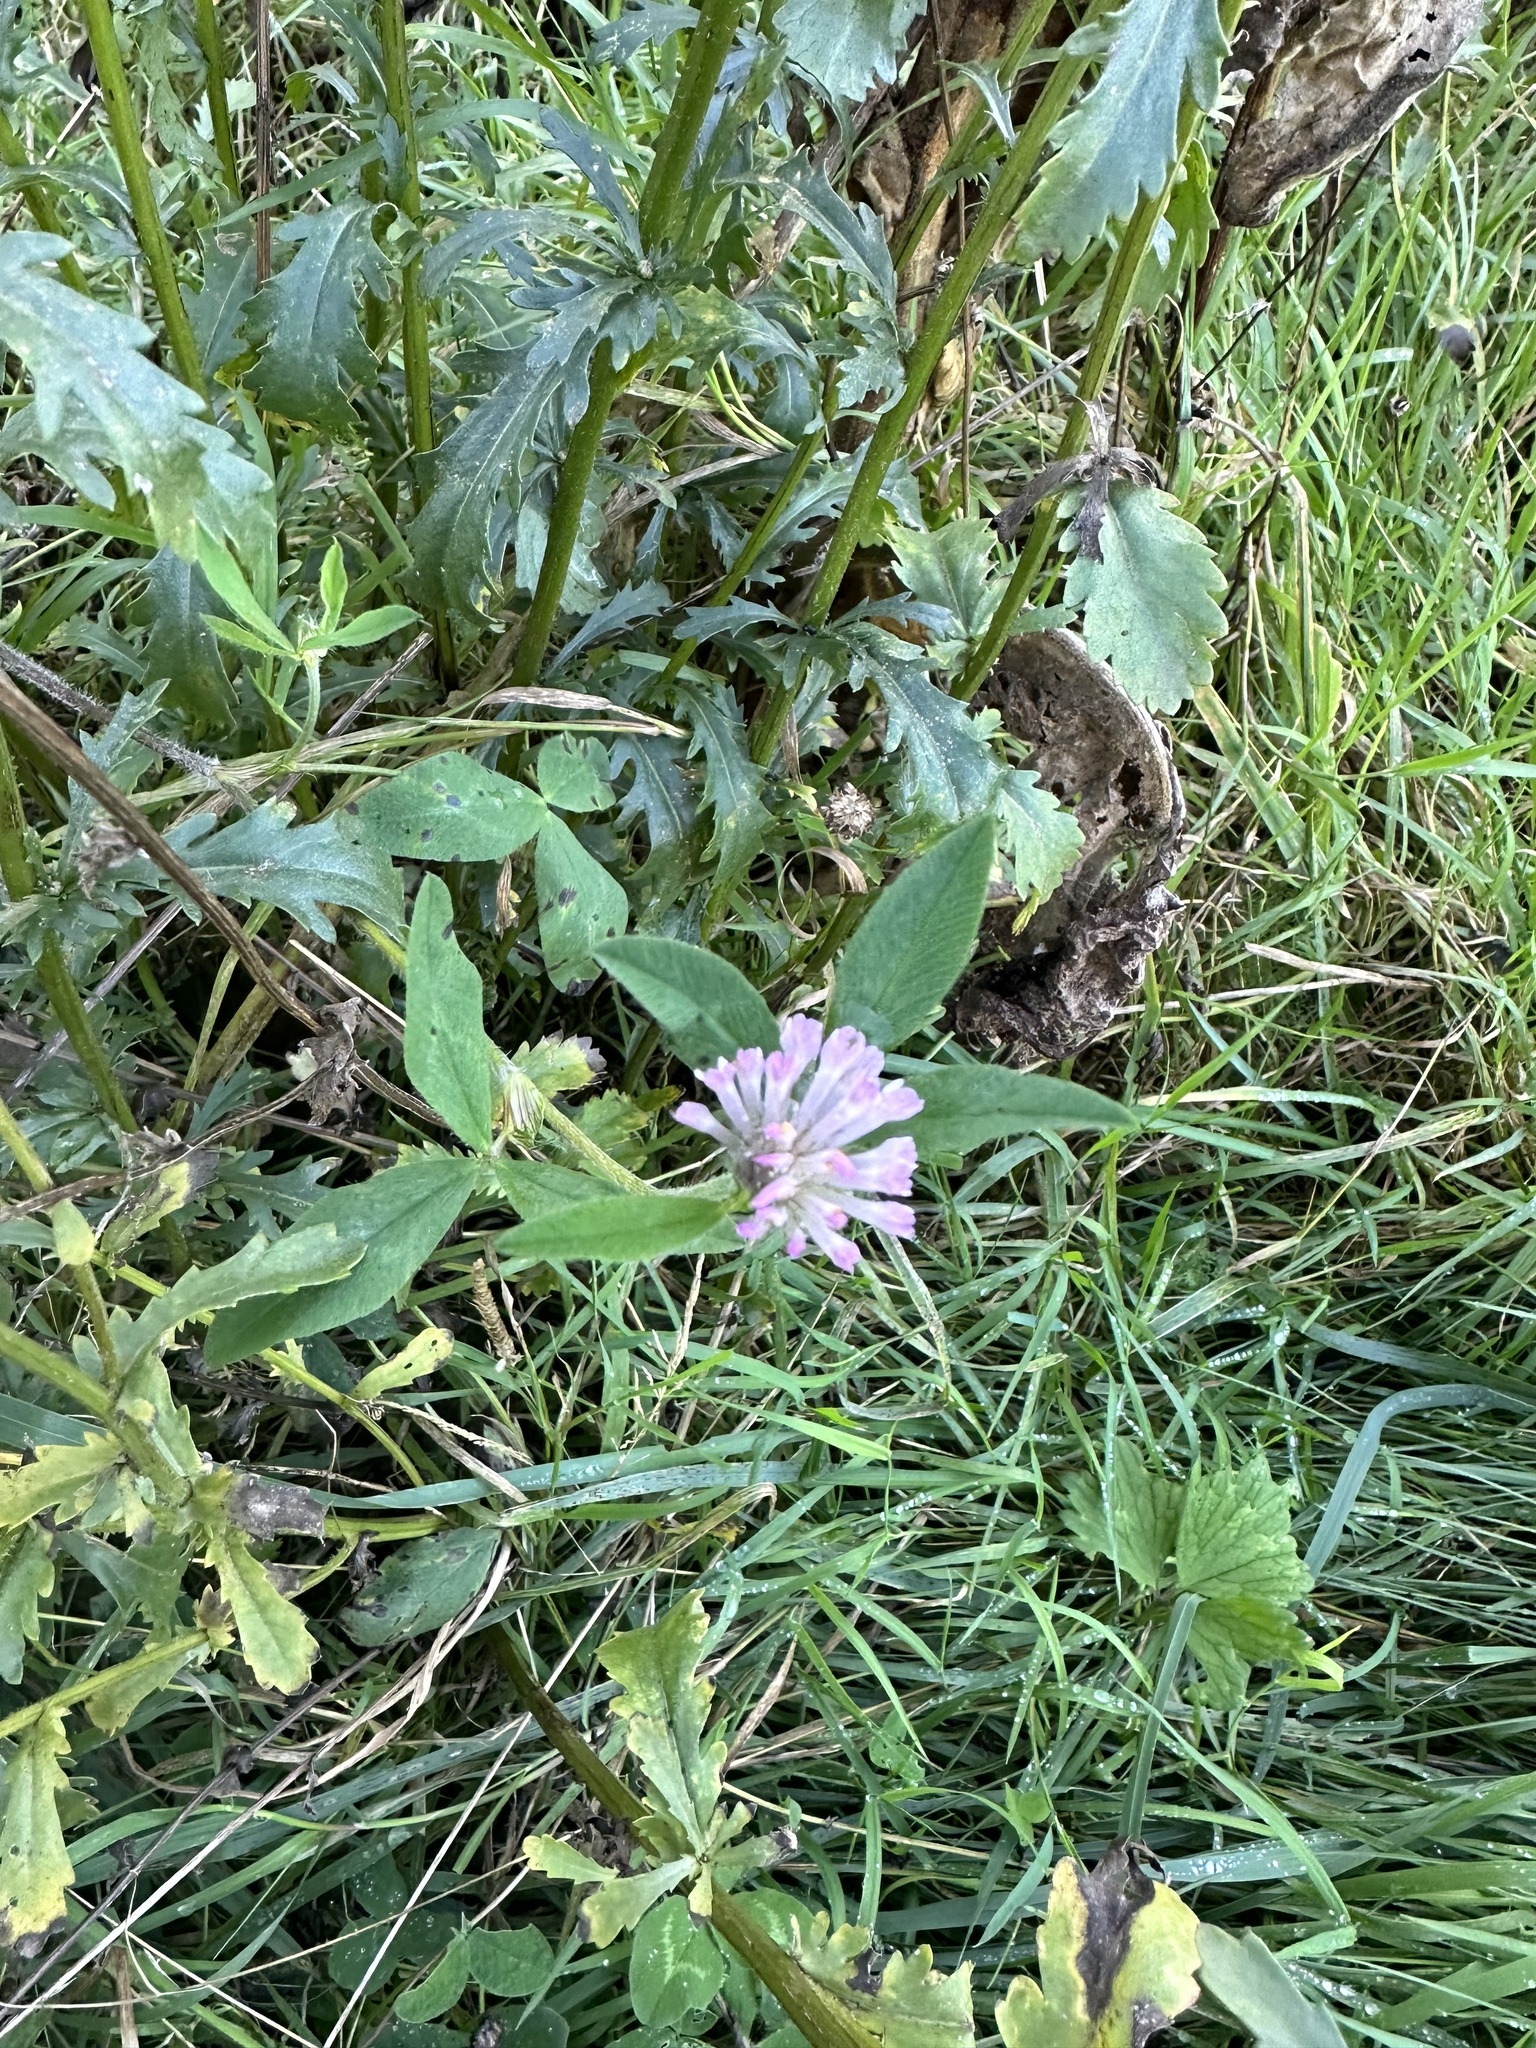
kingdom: Plantae
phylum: Tracheophyta
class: Magnoliopsida
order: Fabales
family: Fabaceae
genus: Trifolium
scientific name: Trifolium pratense
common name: Red clover
